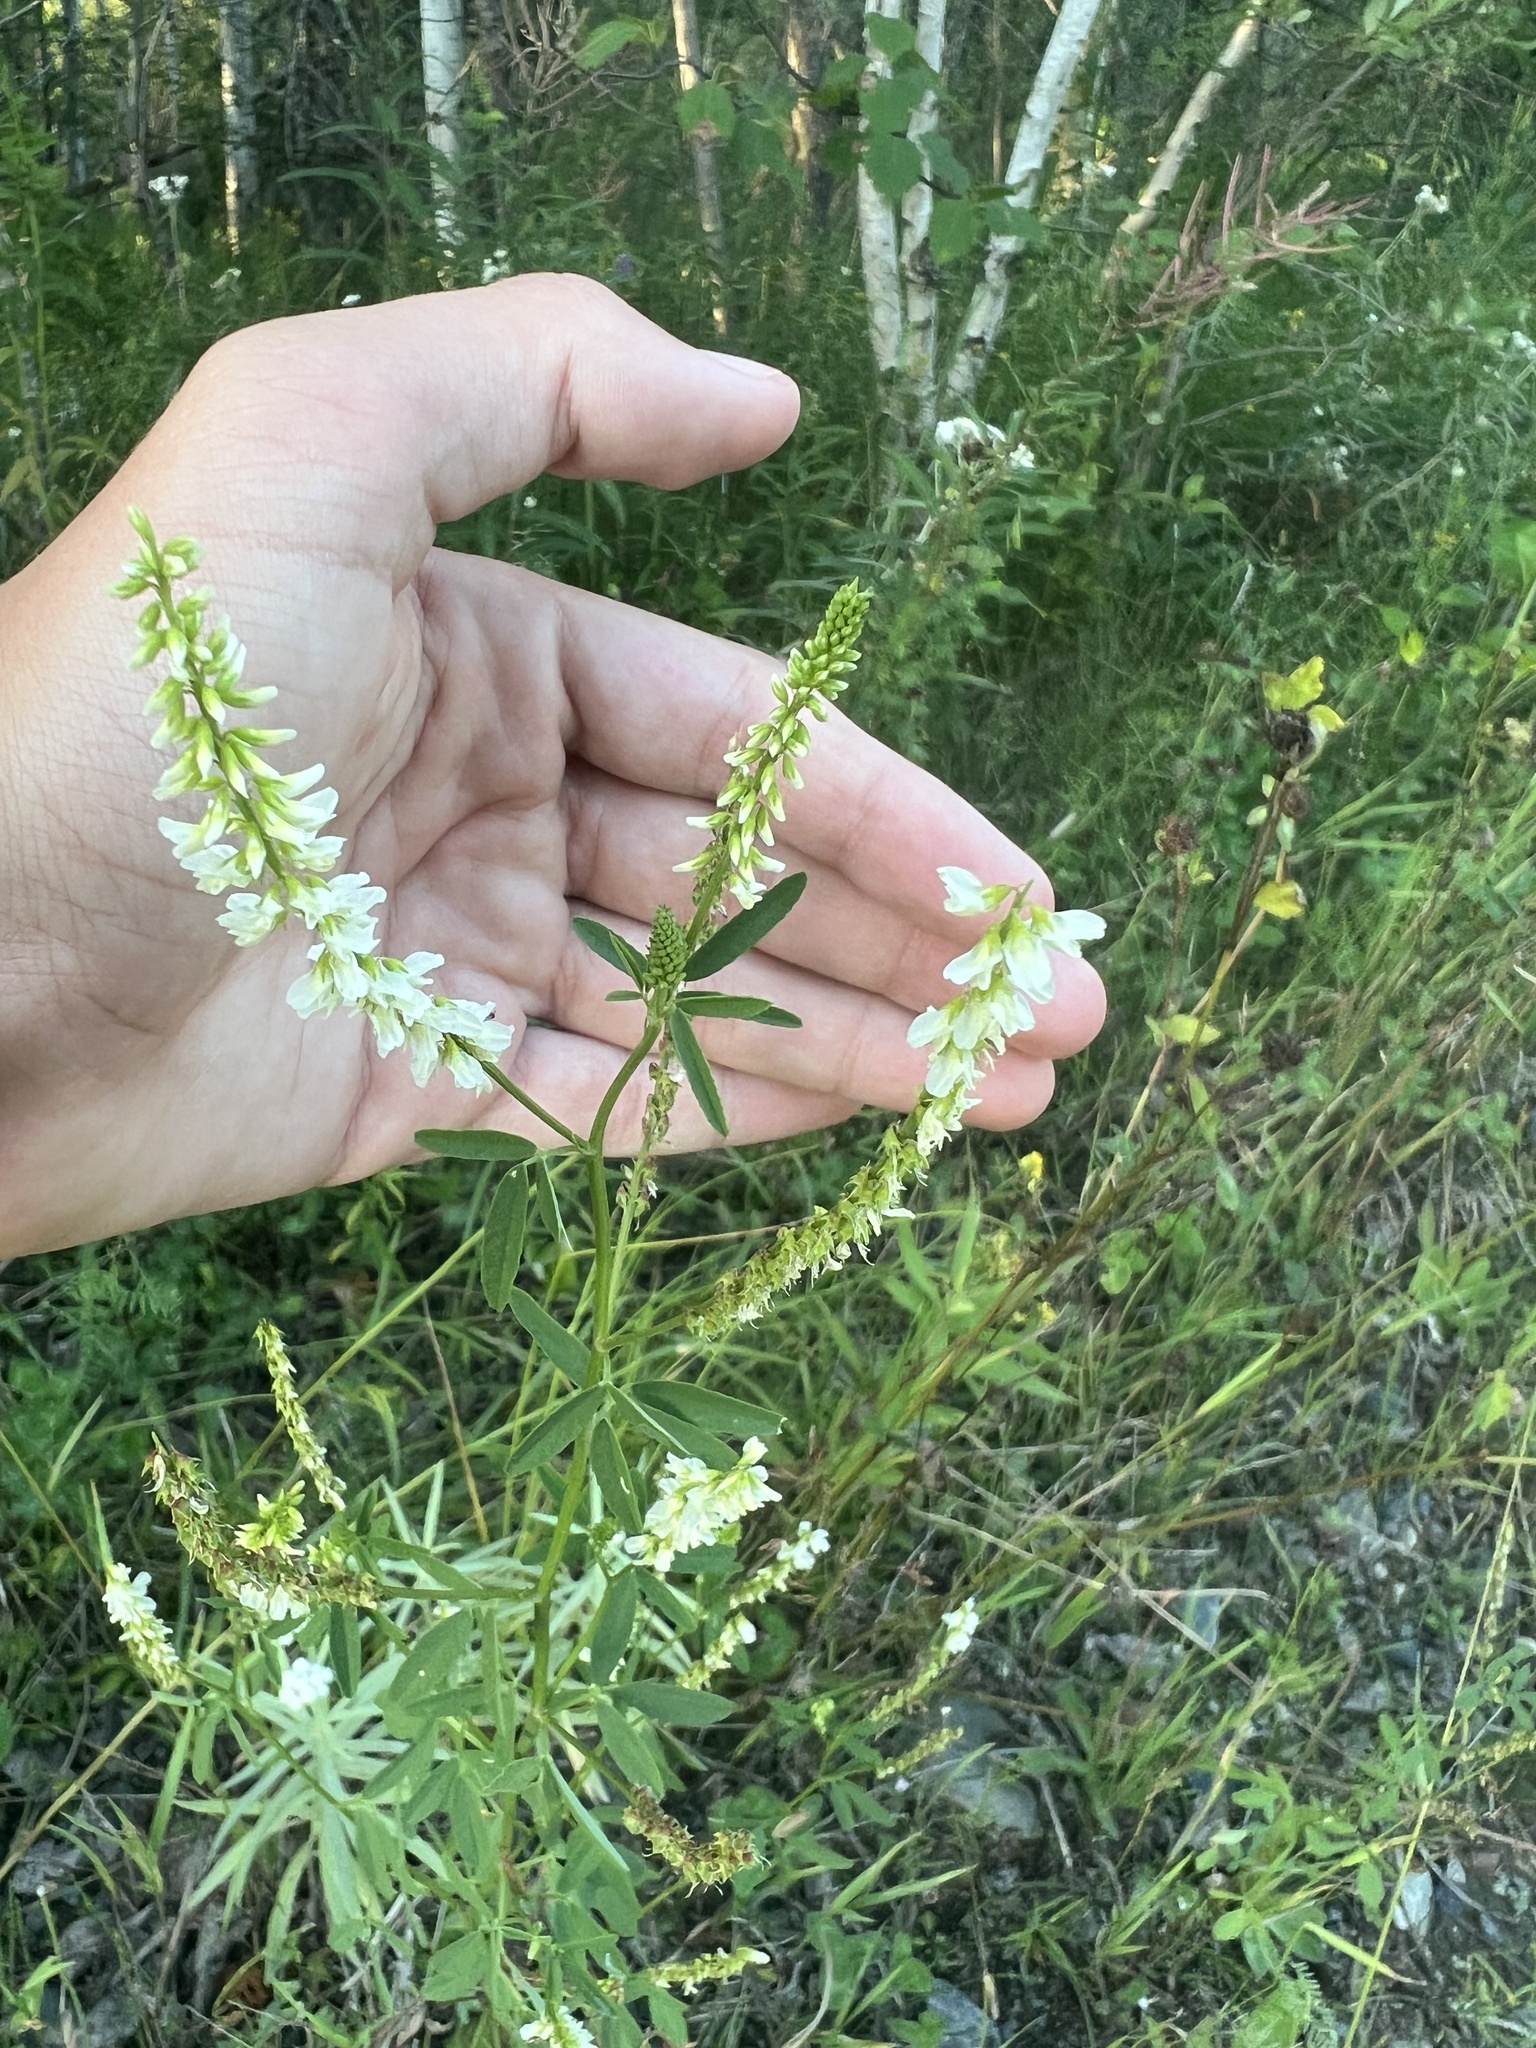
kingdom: Plantae
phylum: Tracheophyta
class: Magnoliopsida
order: Fabales
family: Fabaceae
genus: Melilotus
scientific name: Melilotus albus
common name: White melilot
